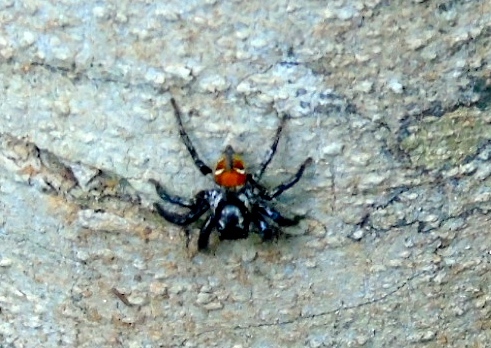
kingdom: Animalia
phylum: Arthropoda
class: Arachnida
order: Araneae
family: Salticidae
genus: Corythalia
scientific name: Corythalia
